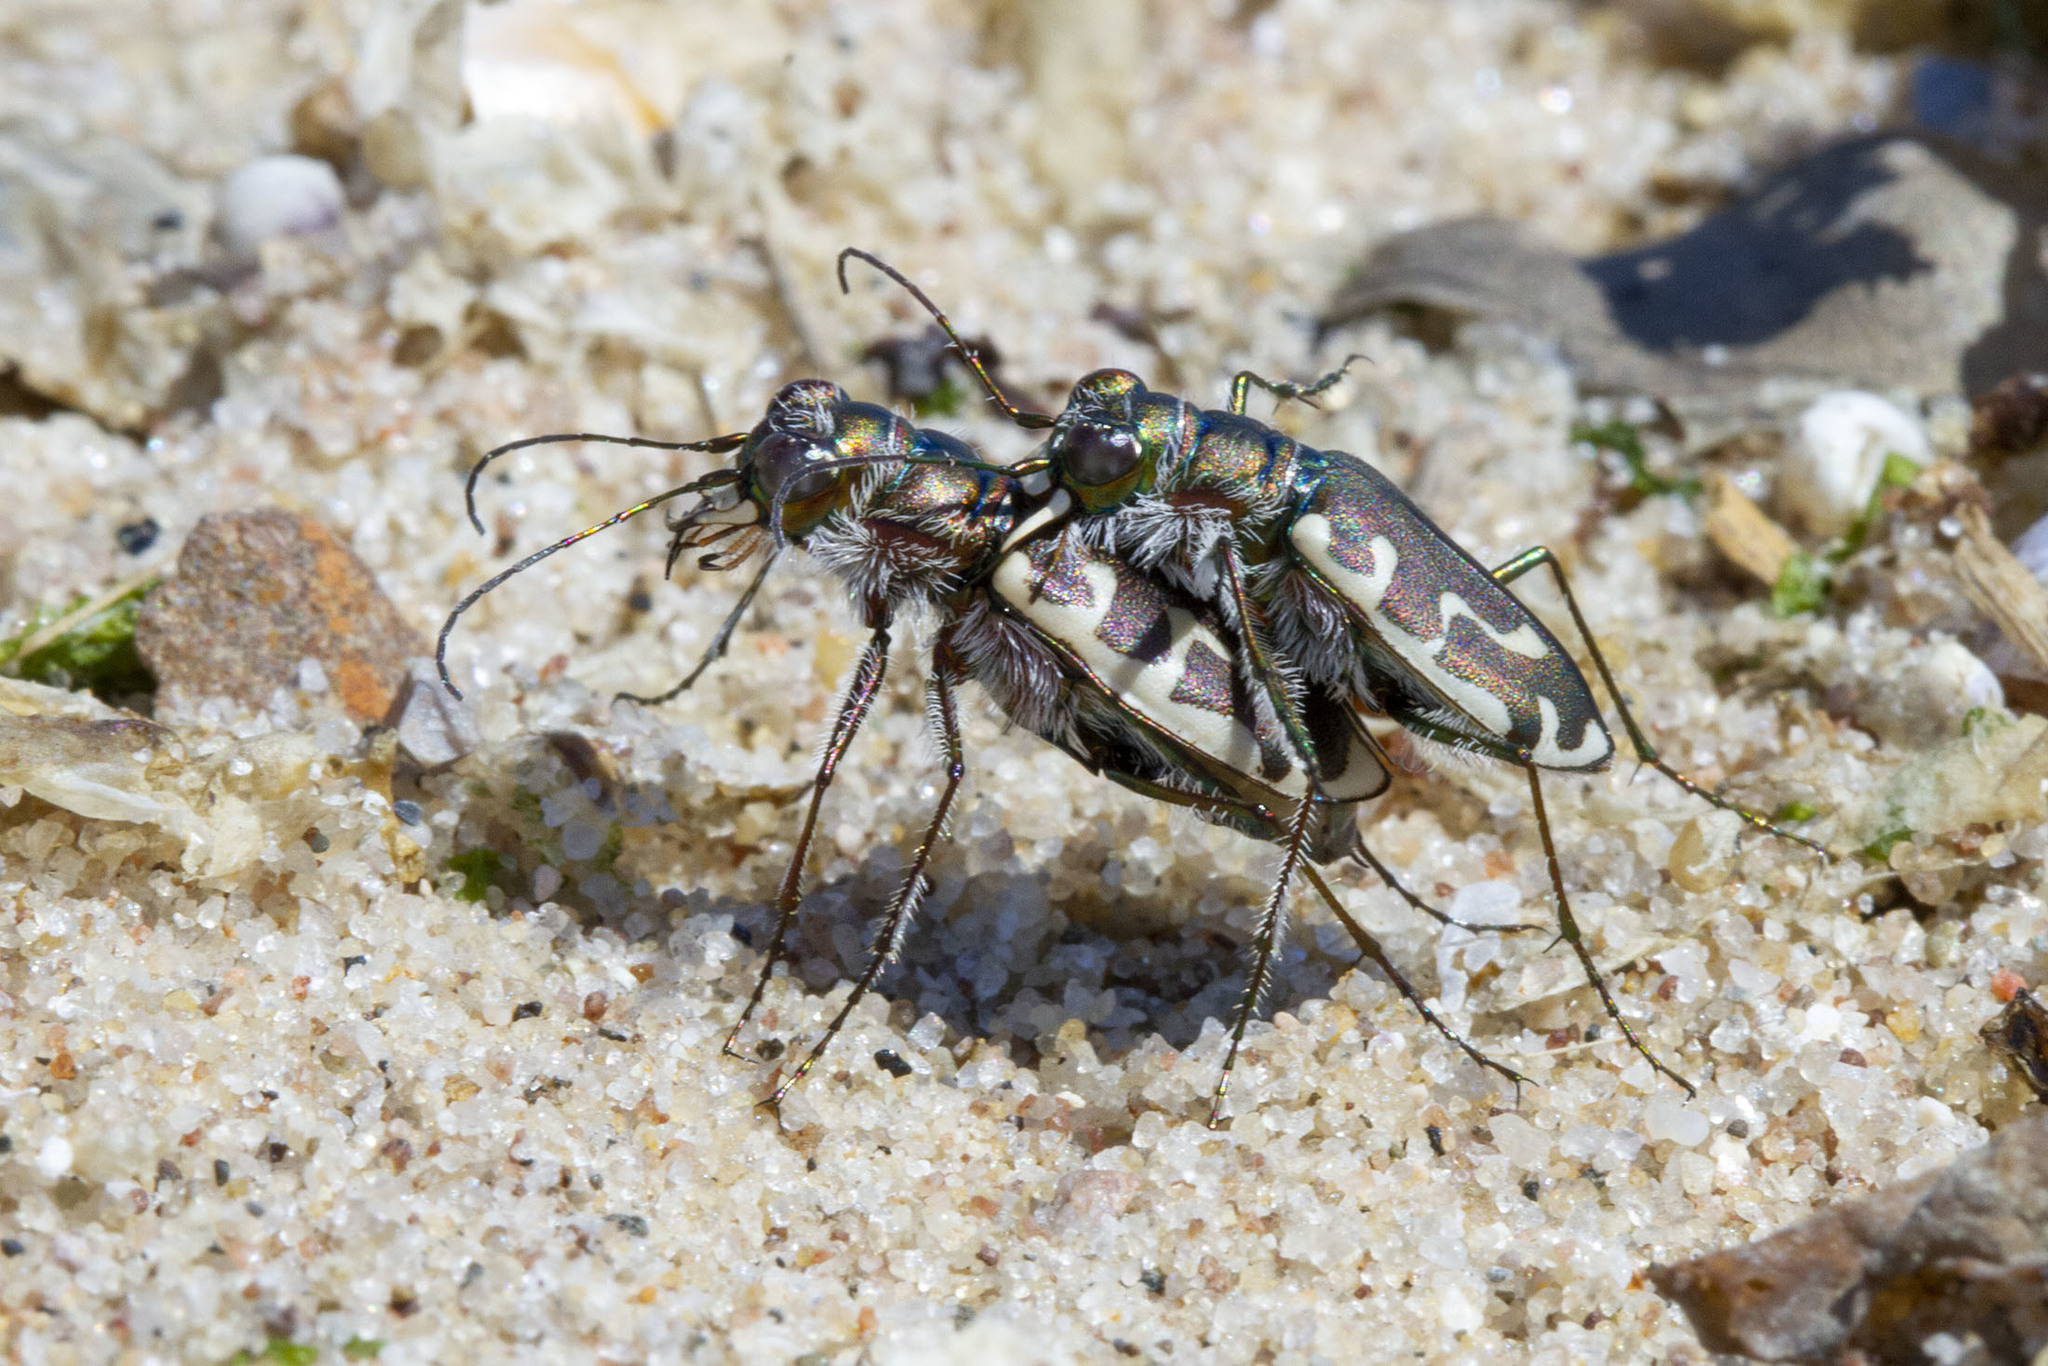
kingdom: Animalia
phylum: Arthropoda
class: Insecta
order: Coleoptera
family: Carabidae
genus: Cicindela
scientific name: Cicindela hirticollis
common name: Hairy-necked tiger beetle
